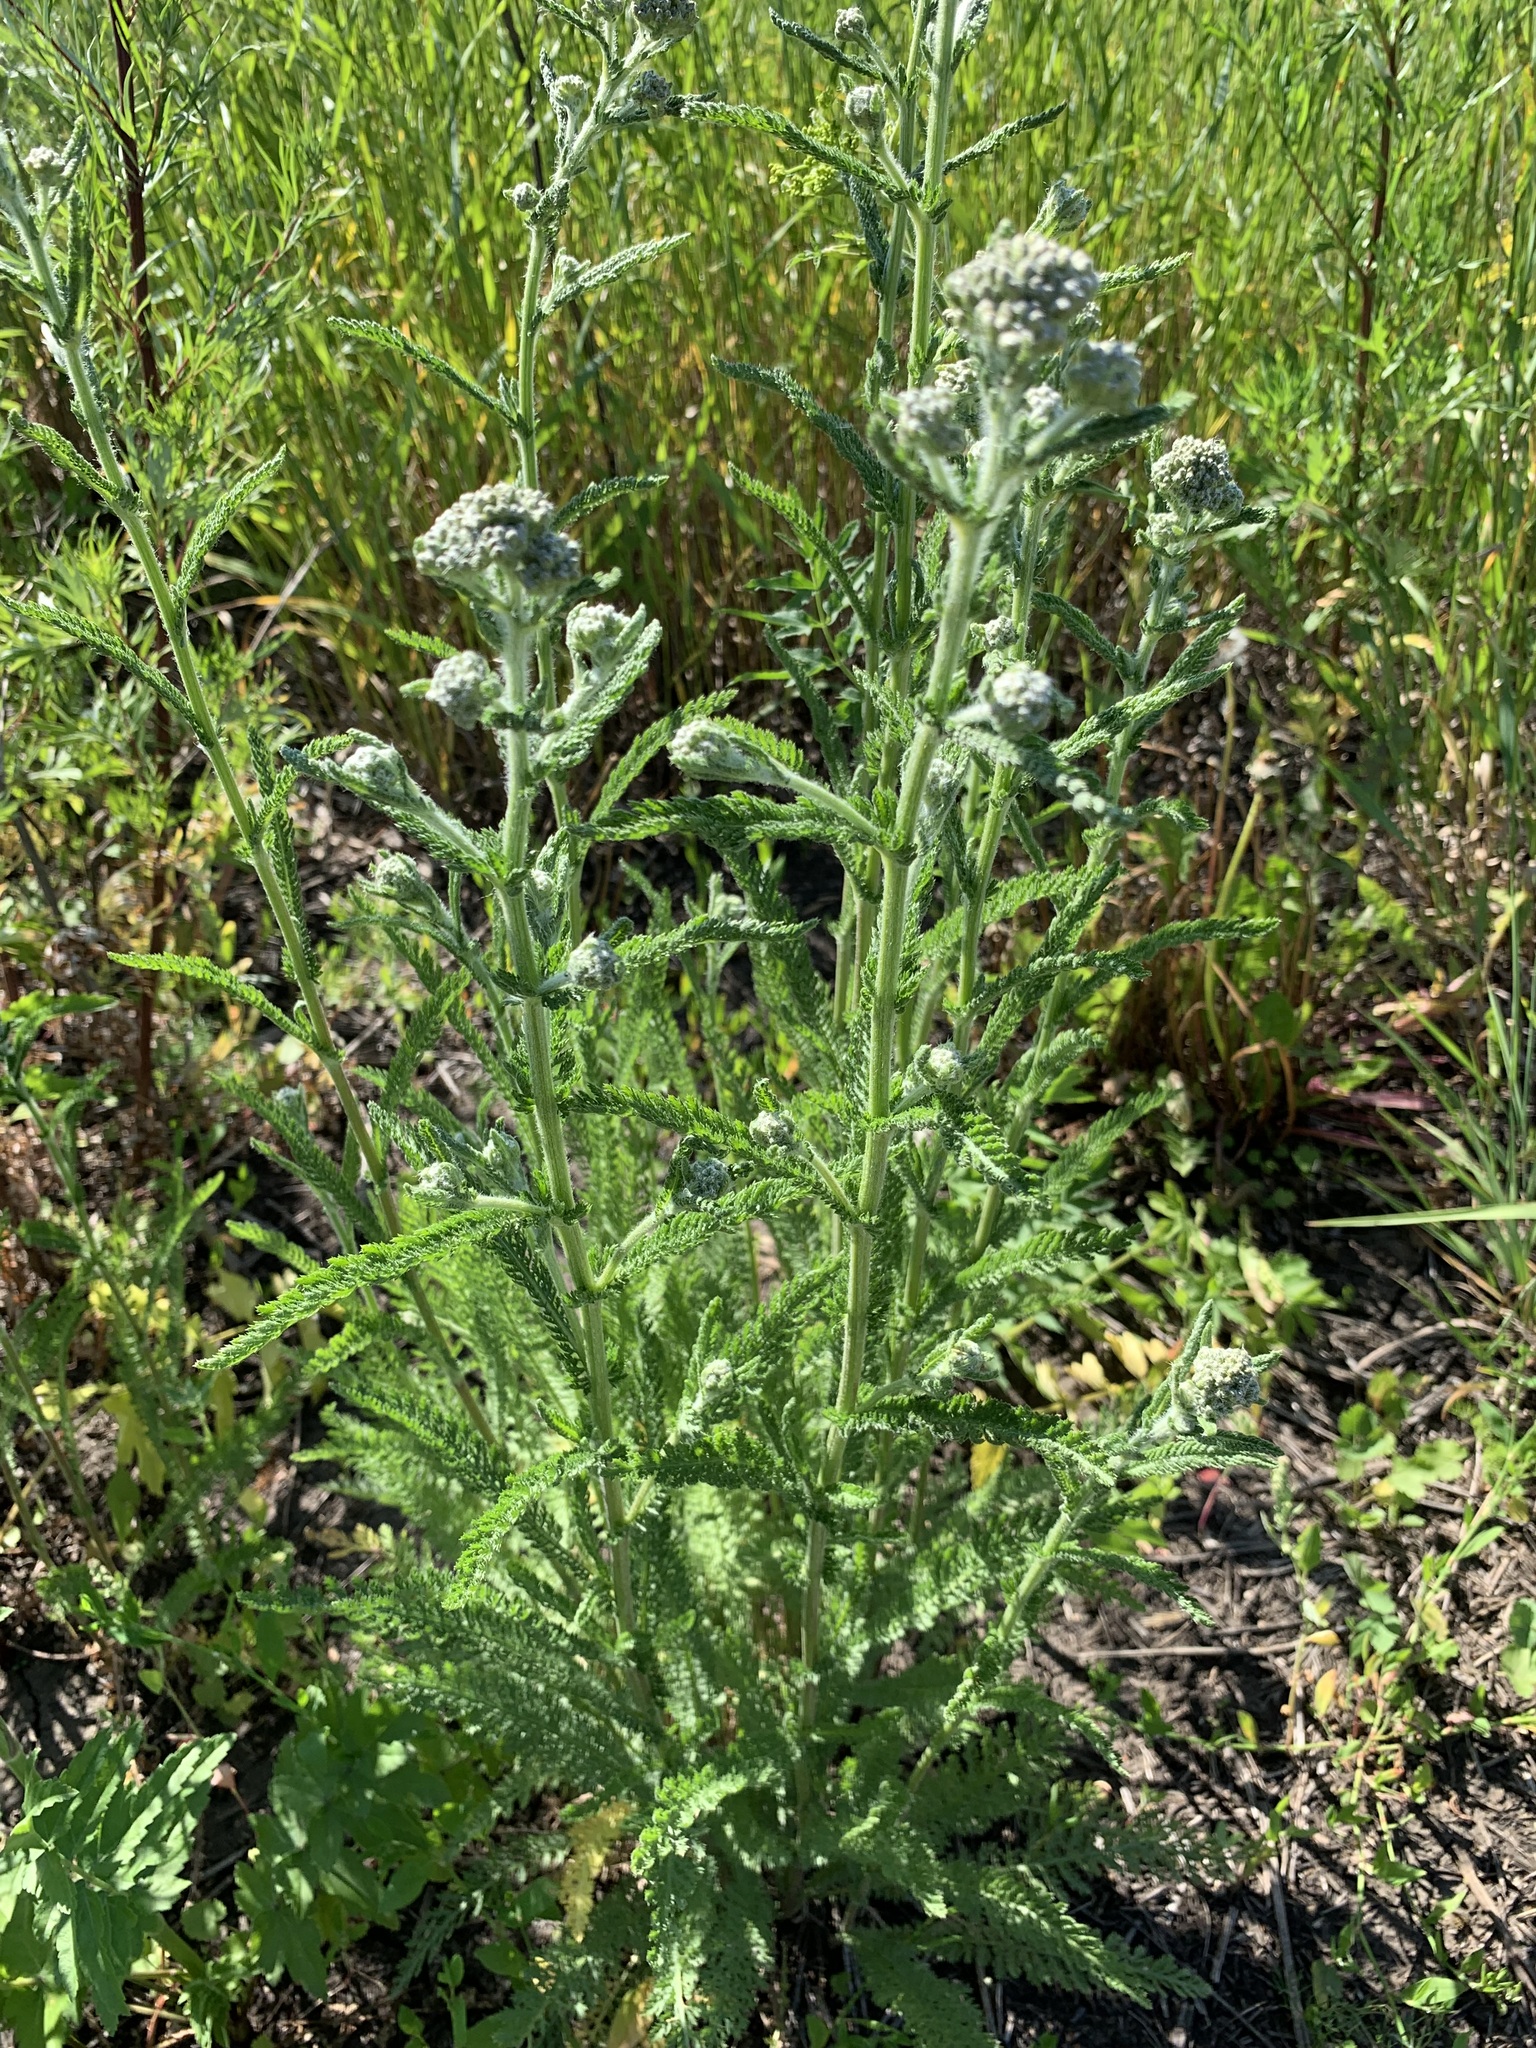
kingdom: Plantae
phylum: Tracheophyta
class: Magnoliopsida
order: Asterales
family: Asteraceae
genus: Achillea
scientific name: Achillea millefolium
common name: Yarrow
